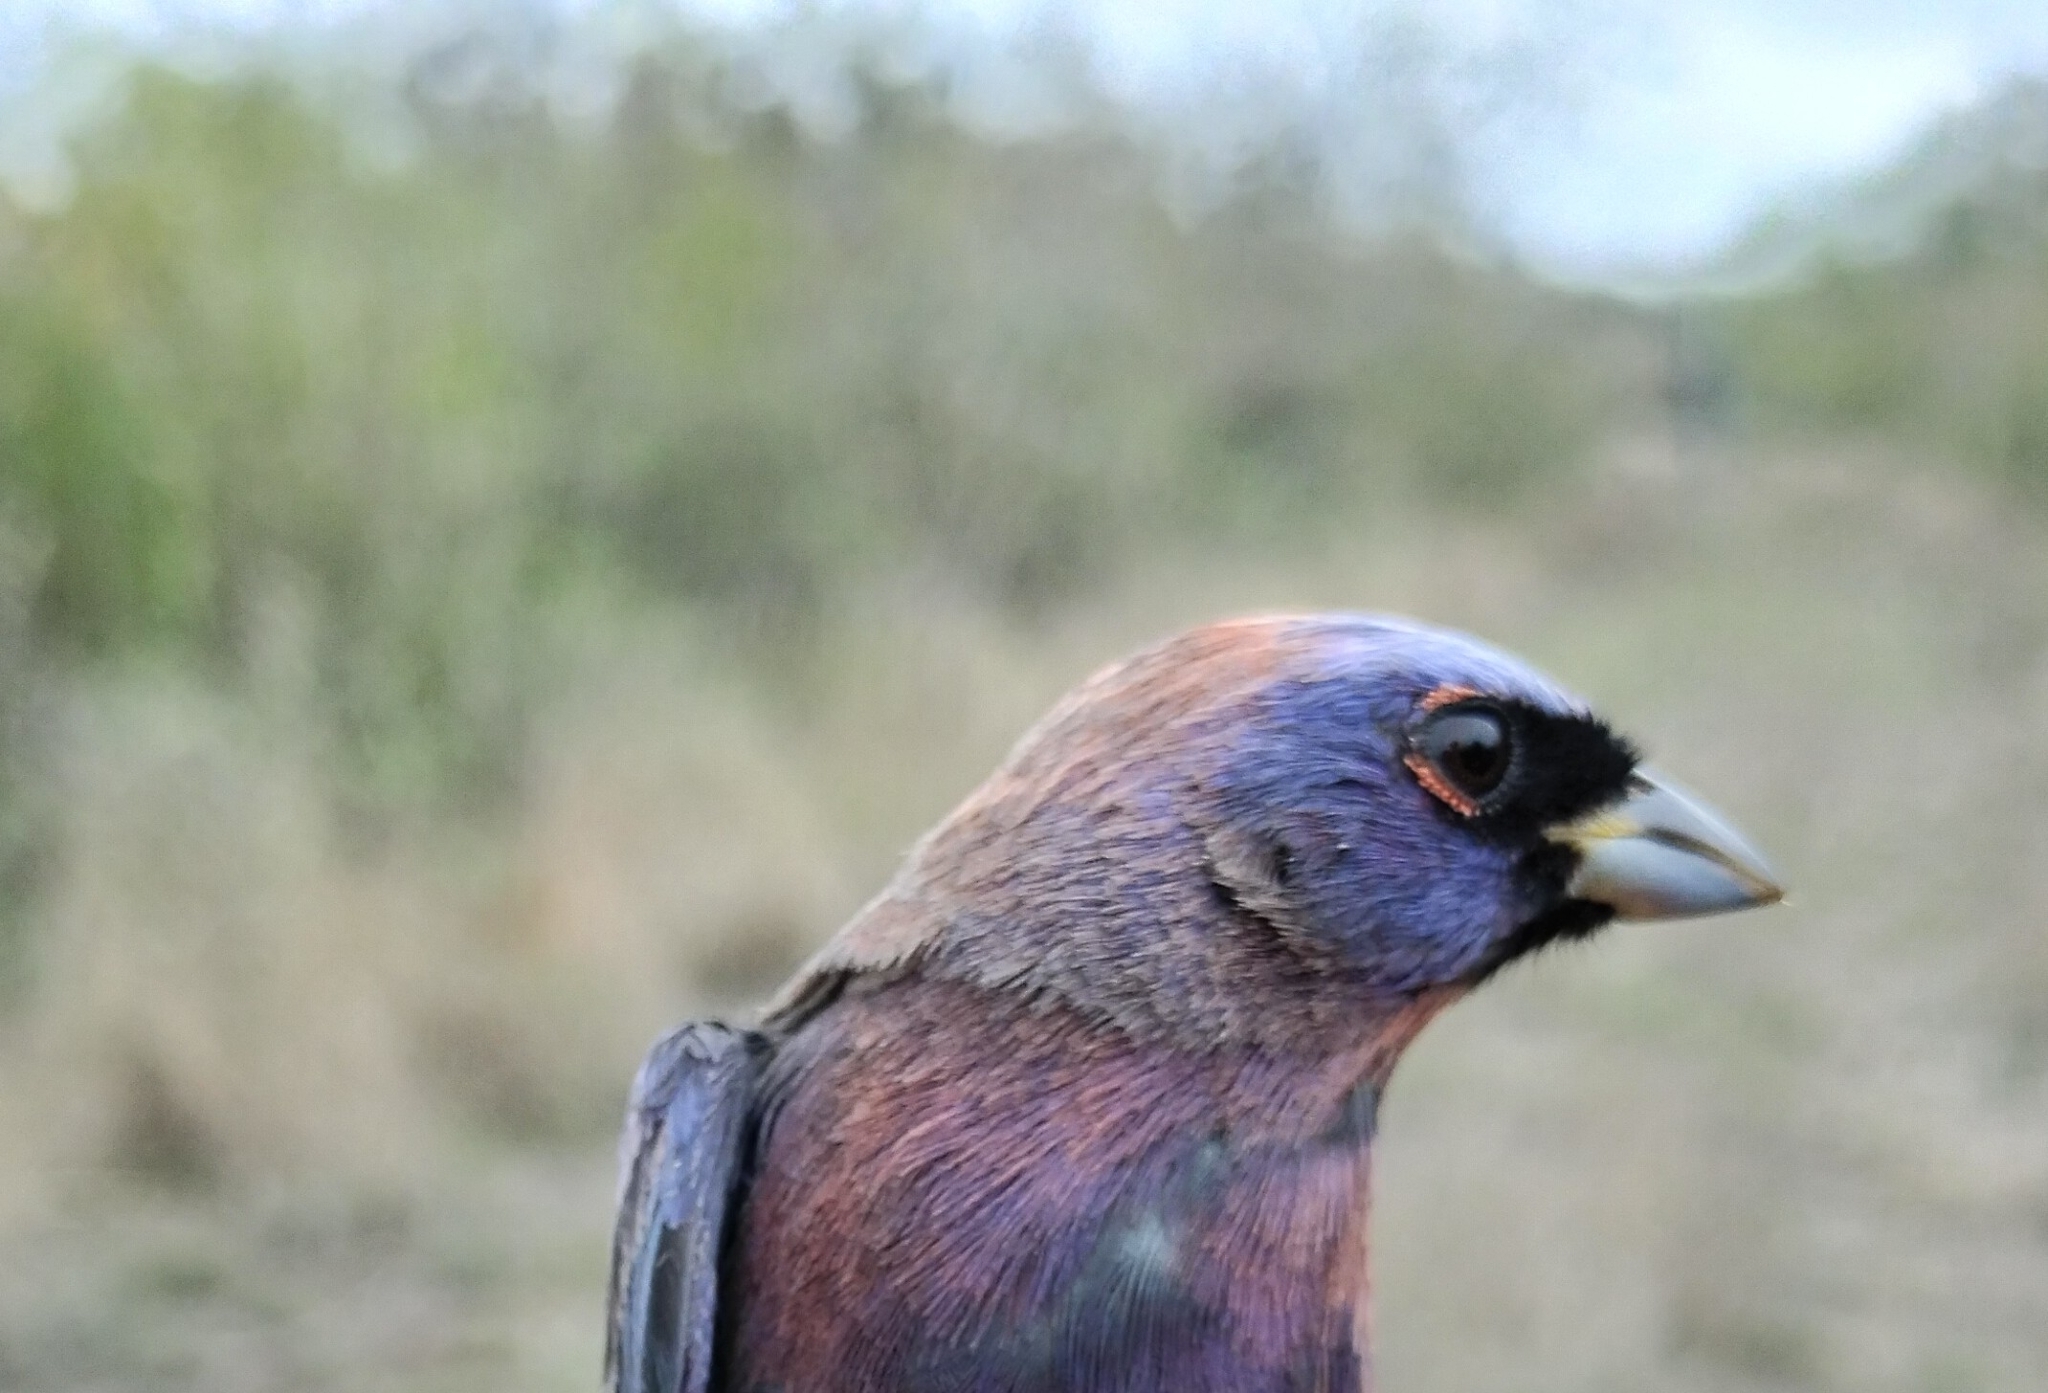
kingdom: Animalia
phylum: Chordata
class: Aves
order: Passeriformes
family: Cardinalidae
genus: Passerina
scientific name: Passerina versicolor
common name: Varied bunting
